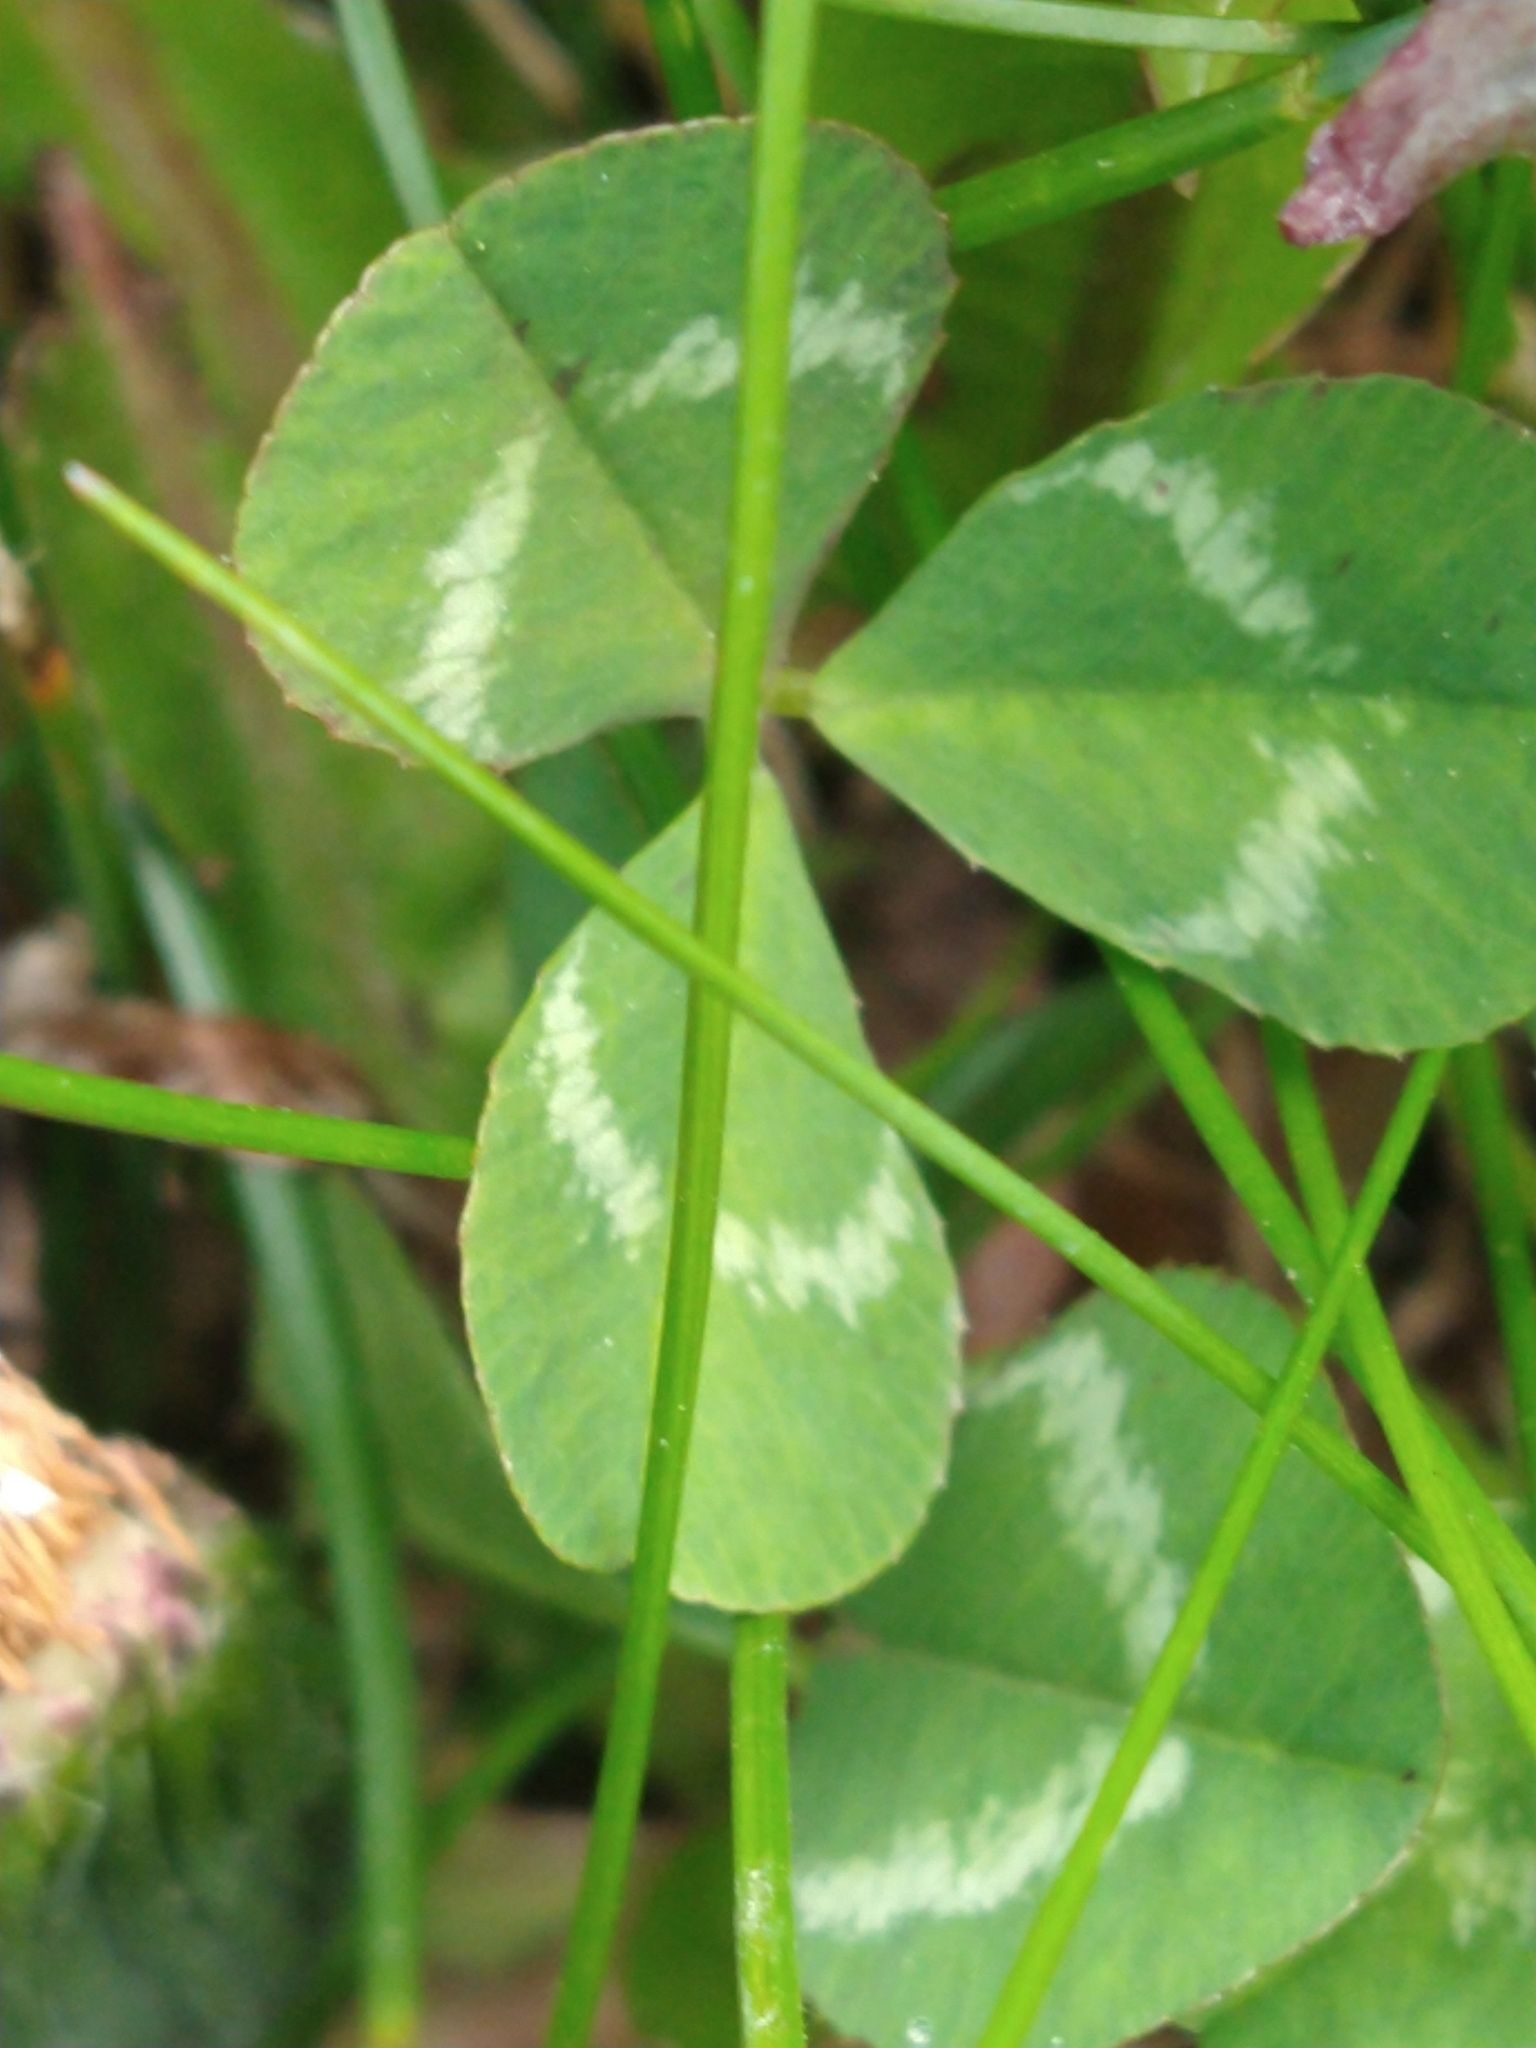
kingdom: Plantae
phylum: Tracheophyta
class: Magnoliopsida
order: Fabales
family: Fabaceae
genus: Trifolium
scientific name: Trifolium repens
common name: White clover
